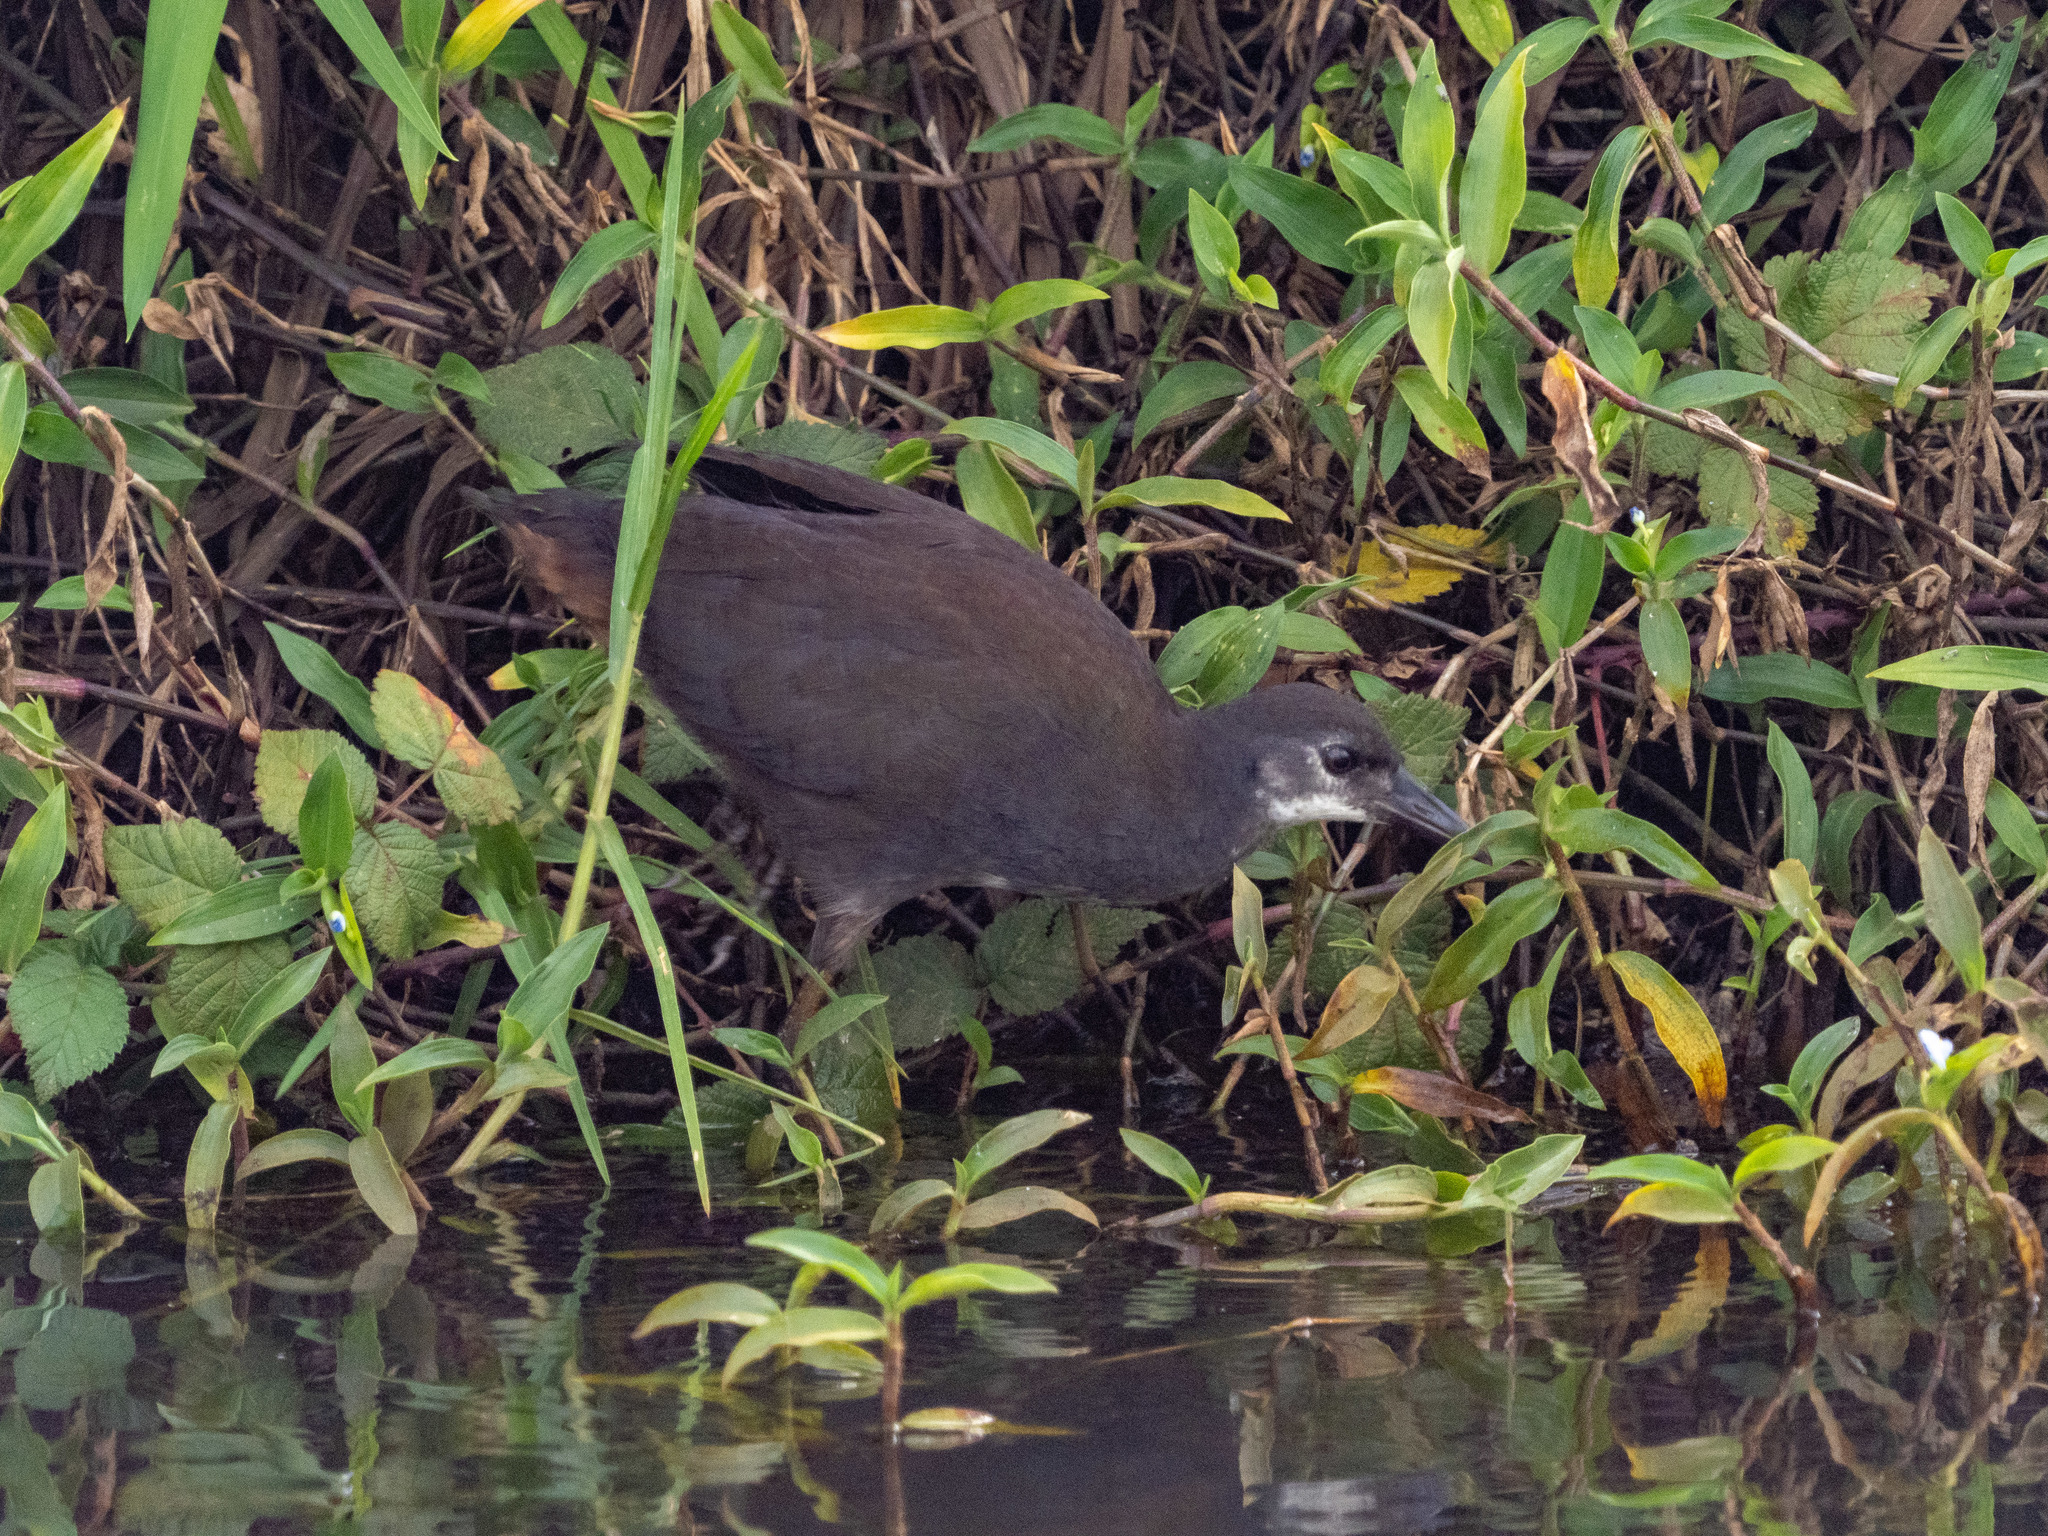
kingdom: Animalia
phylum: Chordata
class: Aves
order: Gruiformes
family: Rallidae
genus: Amaurornis
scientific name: Amaurornis phoenicurus
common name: White-breasted waterhen
